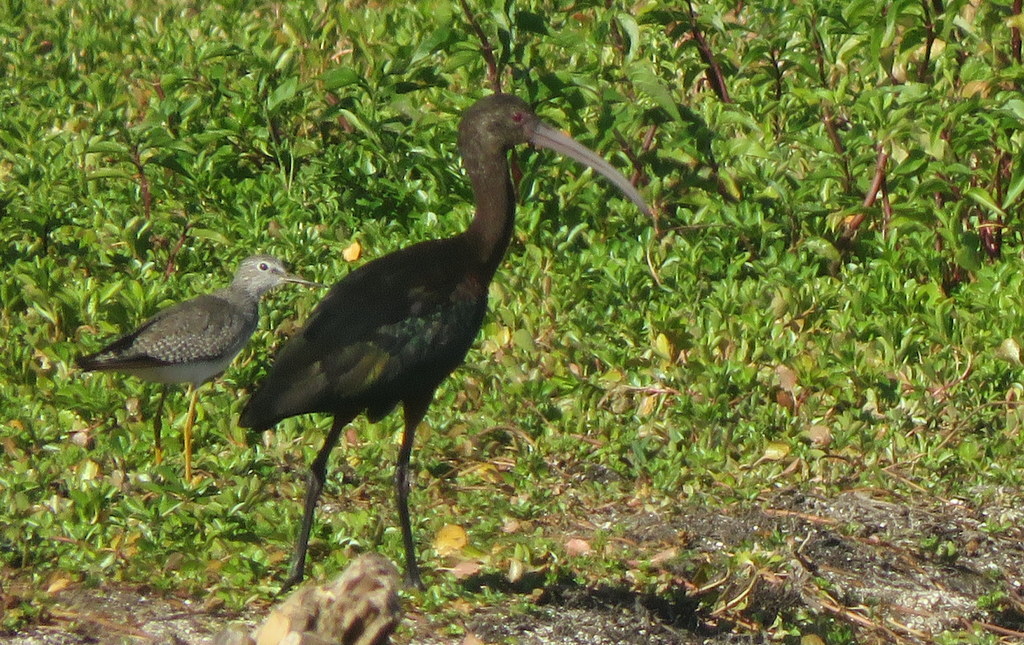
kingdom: Animalia
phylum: Chordata
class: Aves
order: Pelecaniformes
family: Threskiornithidae
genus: Plegadis
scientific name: Plegadis chihi
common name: White-faced ibis
